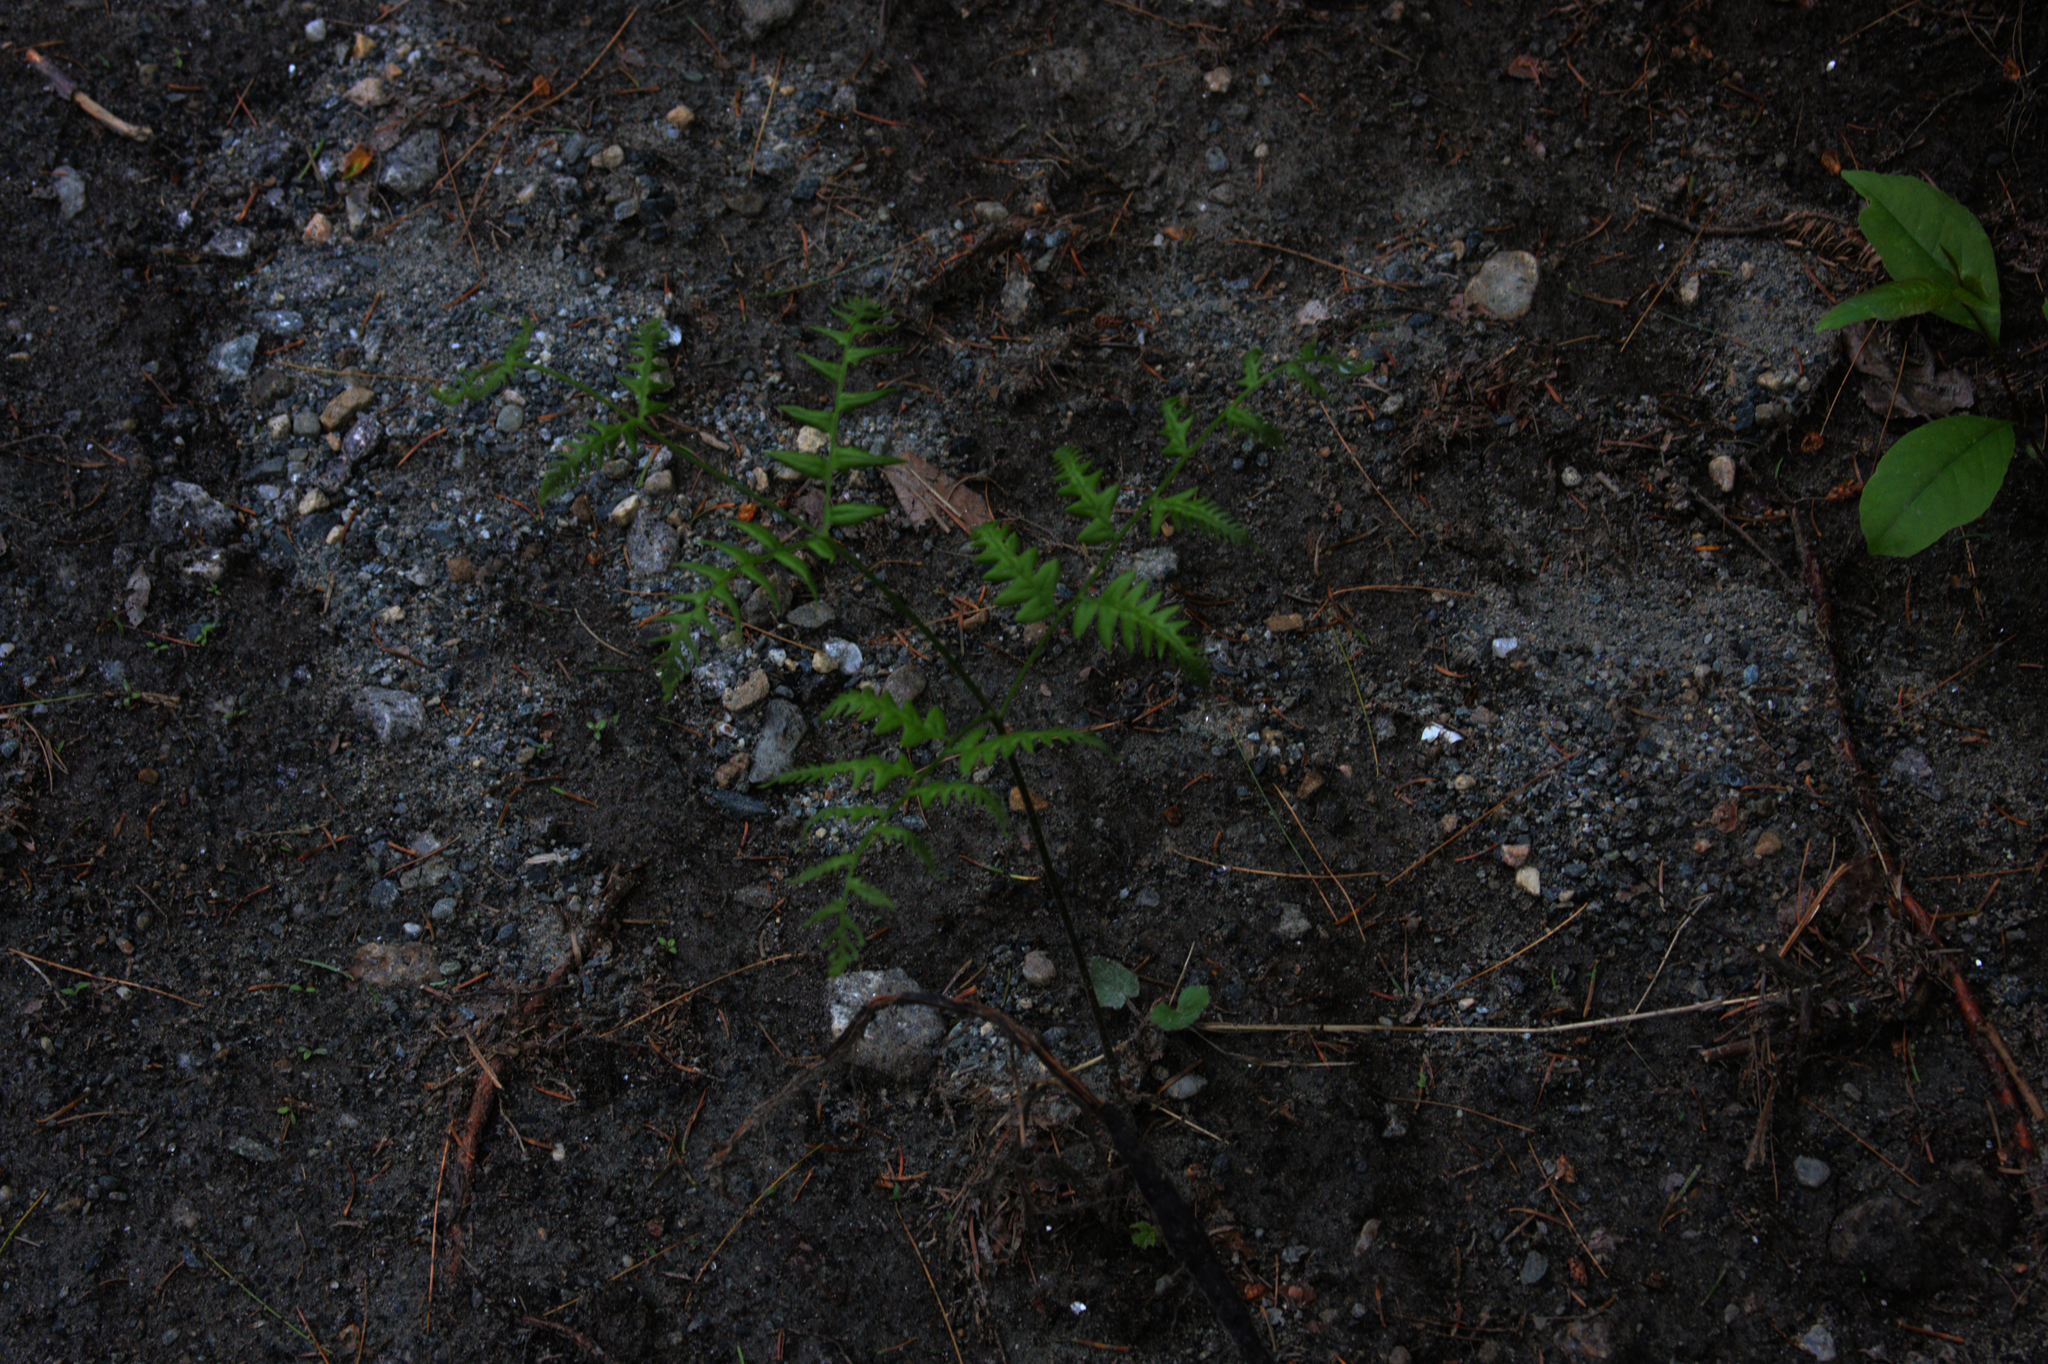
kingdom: Plantae
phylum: Tracheophyta
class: Polypodiopsida
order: Polypodiales
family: Dennstaedtiaceae
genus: Pteridium
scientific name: Pteridium aquilinum
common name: Bracken
